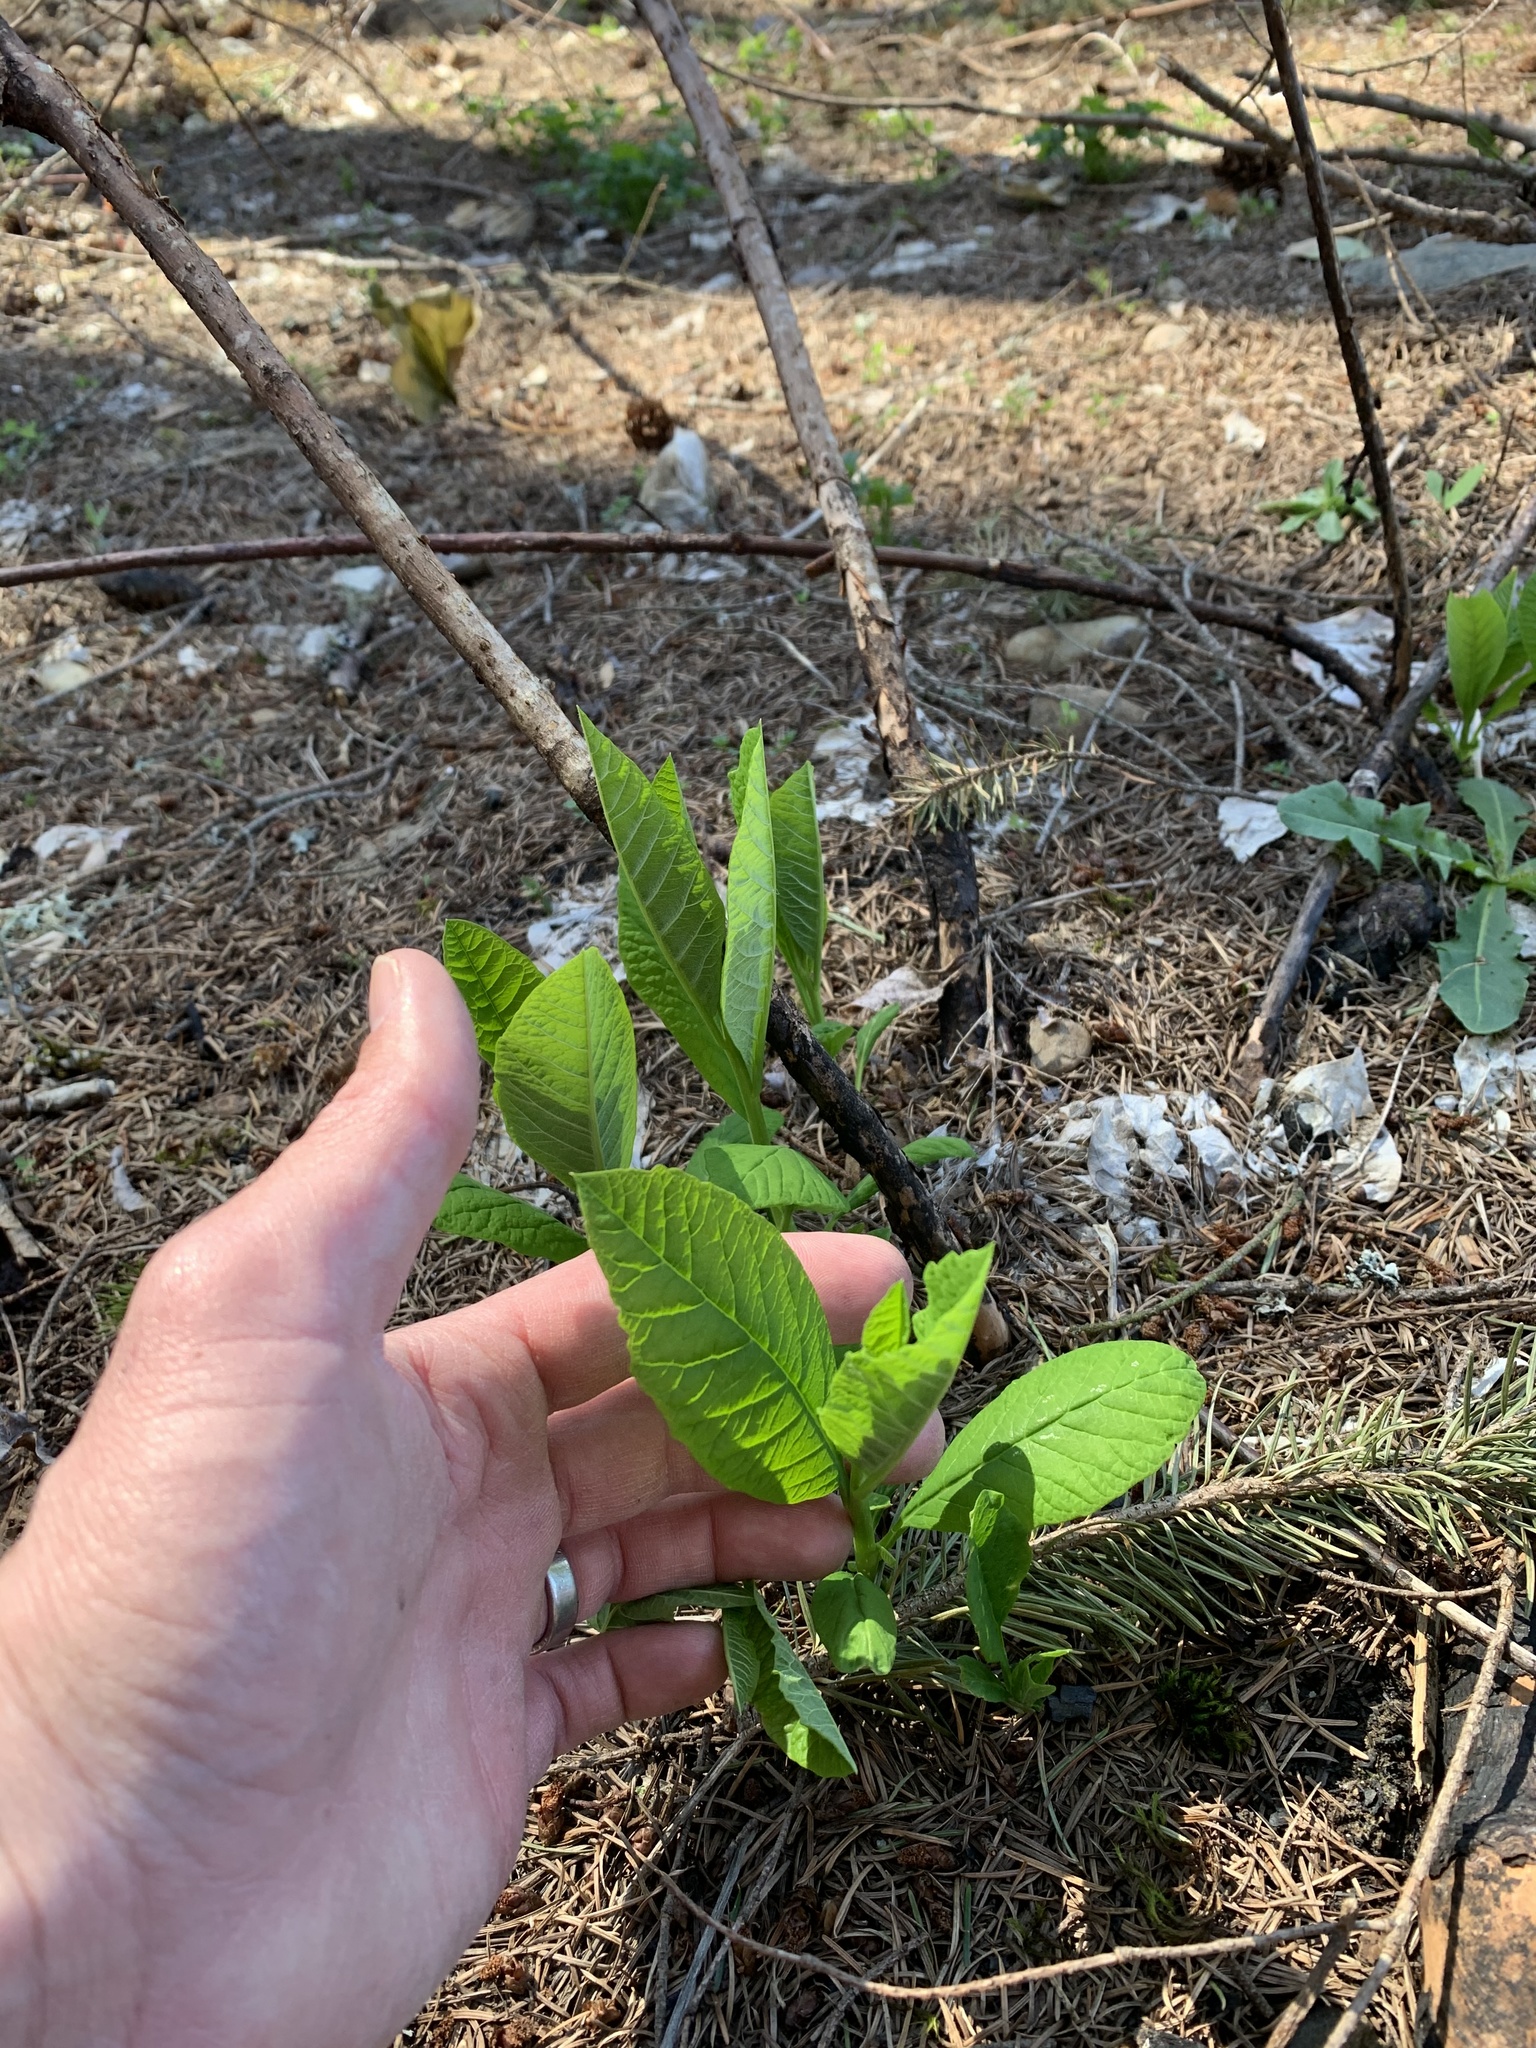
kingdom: Plantae
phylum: Tracheophyta
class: Magnoliopsida
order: Rosales
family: Rosaceae
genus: Oemleria
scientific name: Oemleria cerasiformis
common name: Osoberry
